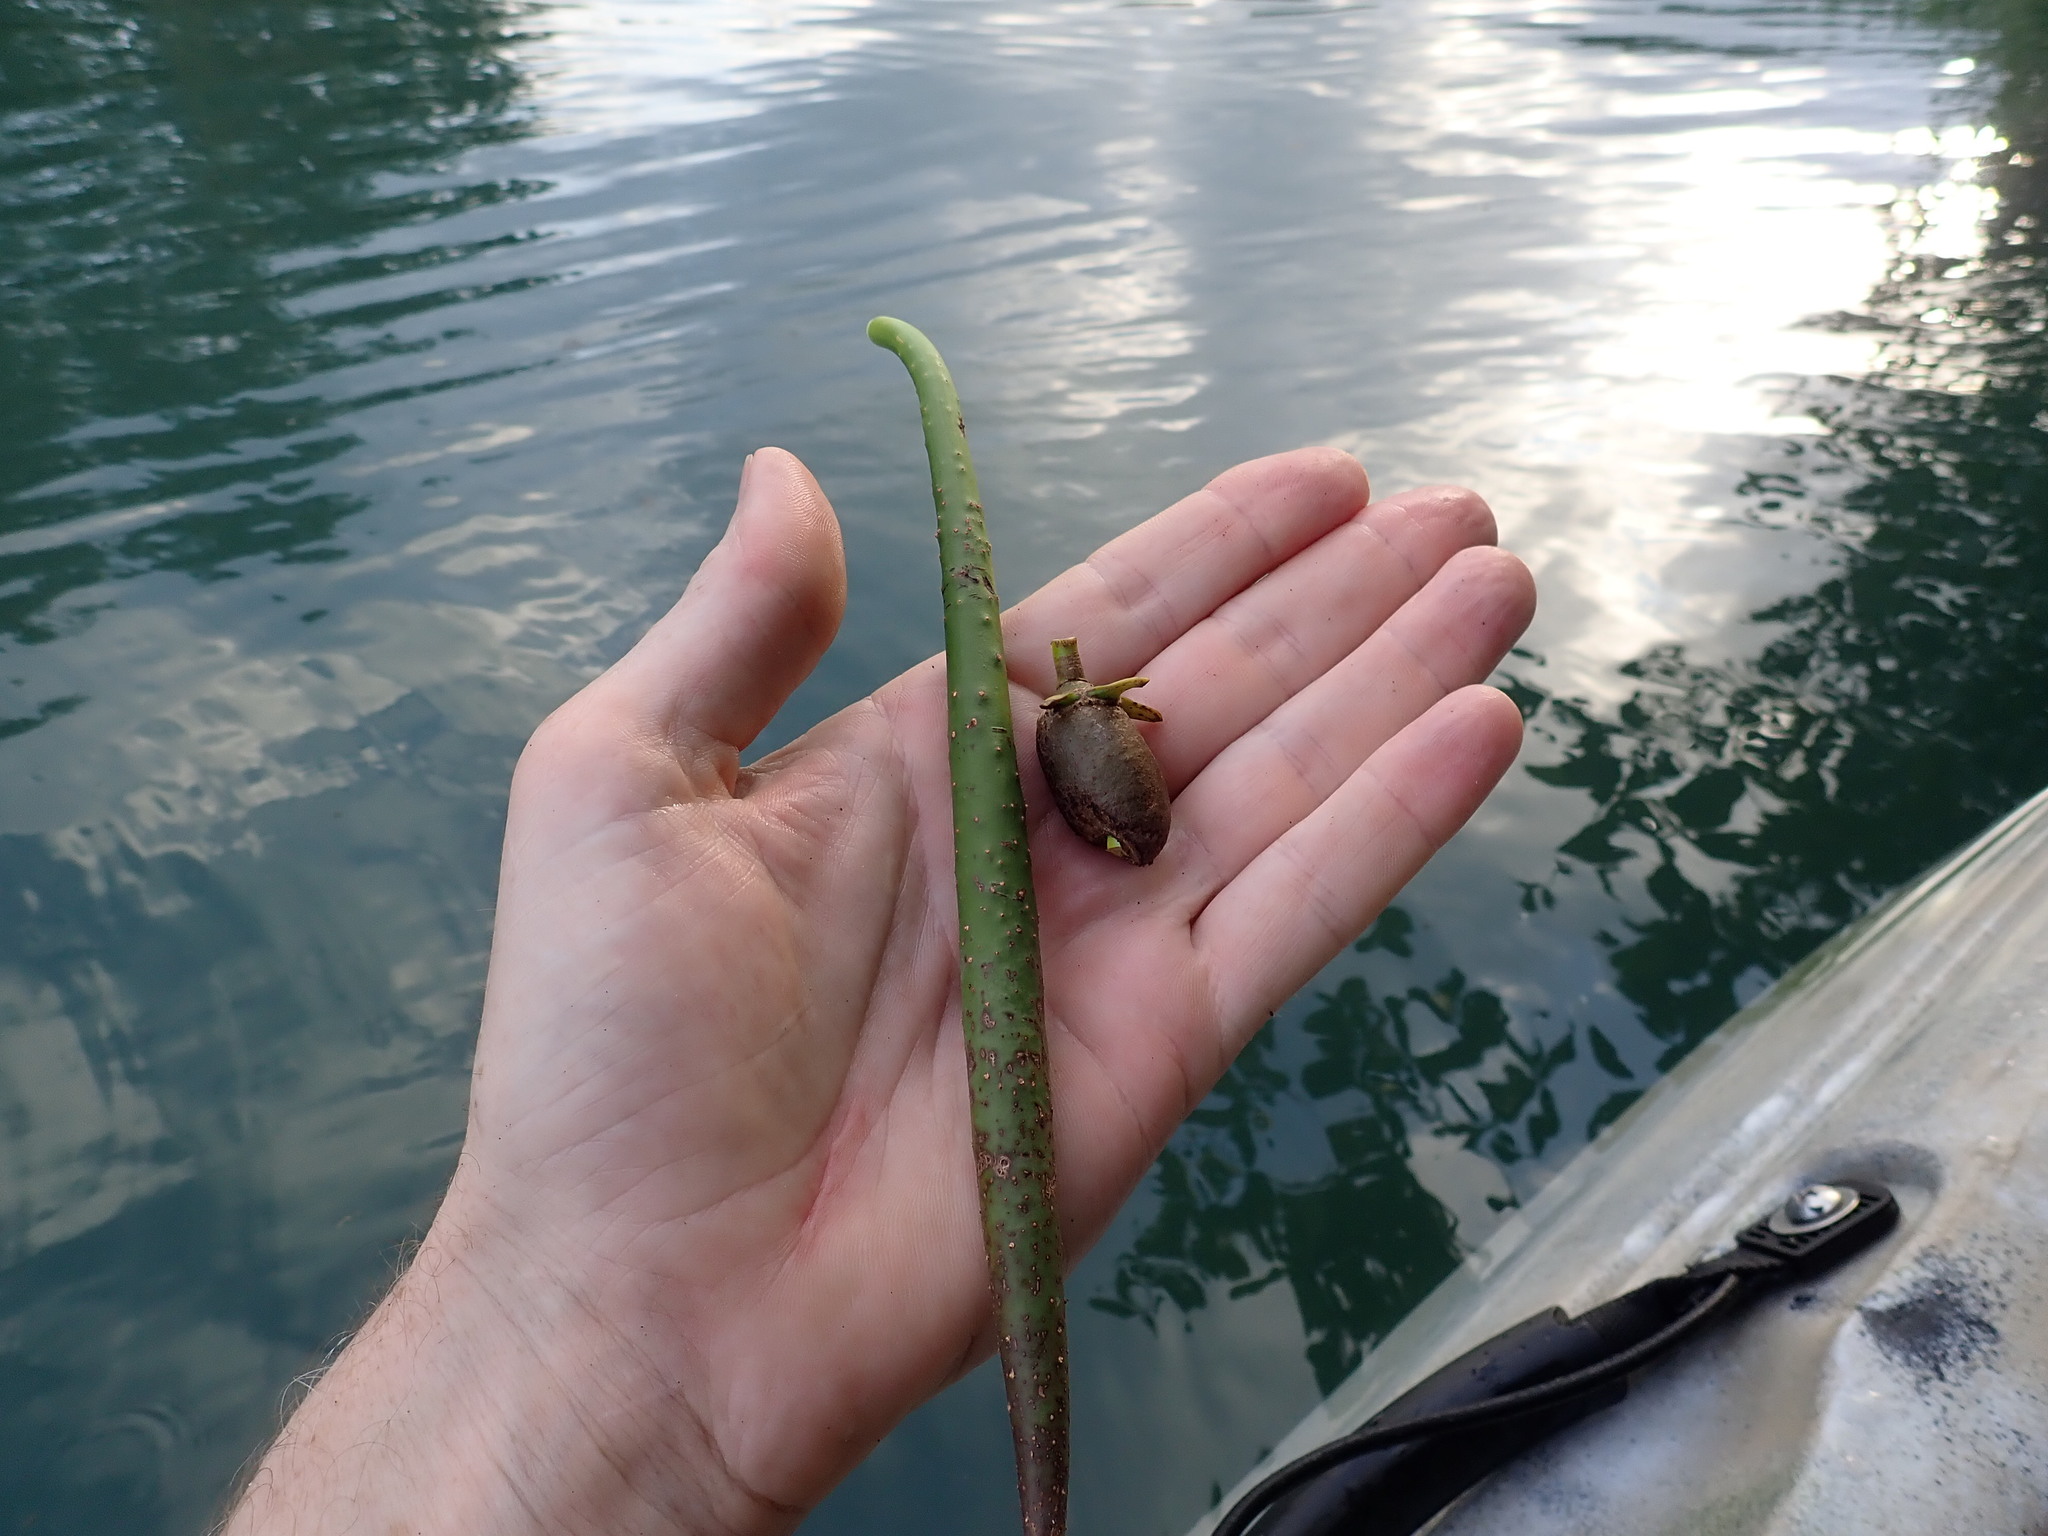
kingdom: Plantae
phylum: Tracheophyta
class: Magnoliopsida
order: Malpighiales
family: Rhizophoraceae
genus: Rhizophora
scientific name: Rhizophora mangle
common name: Red mangrove
